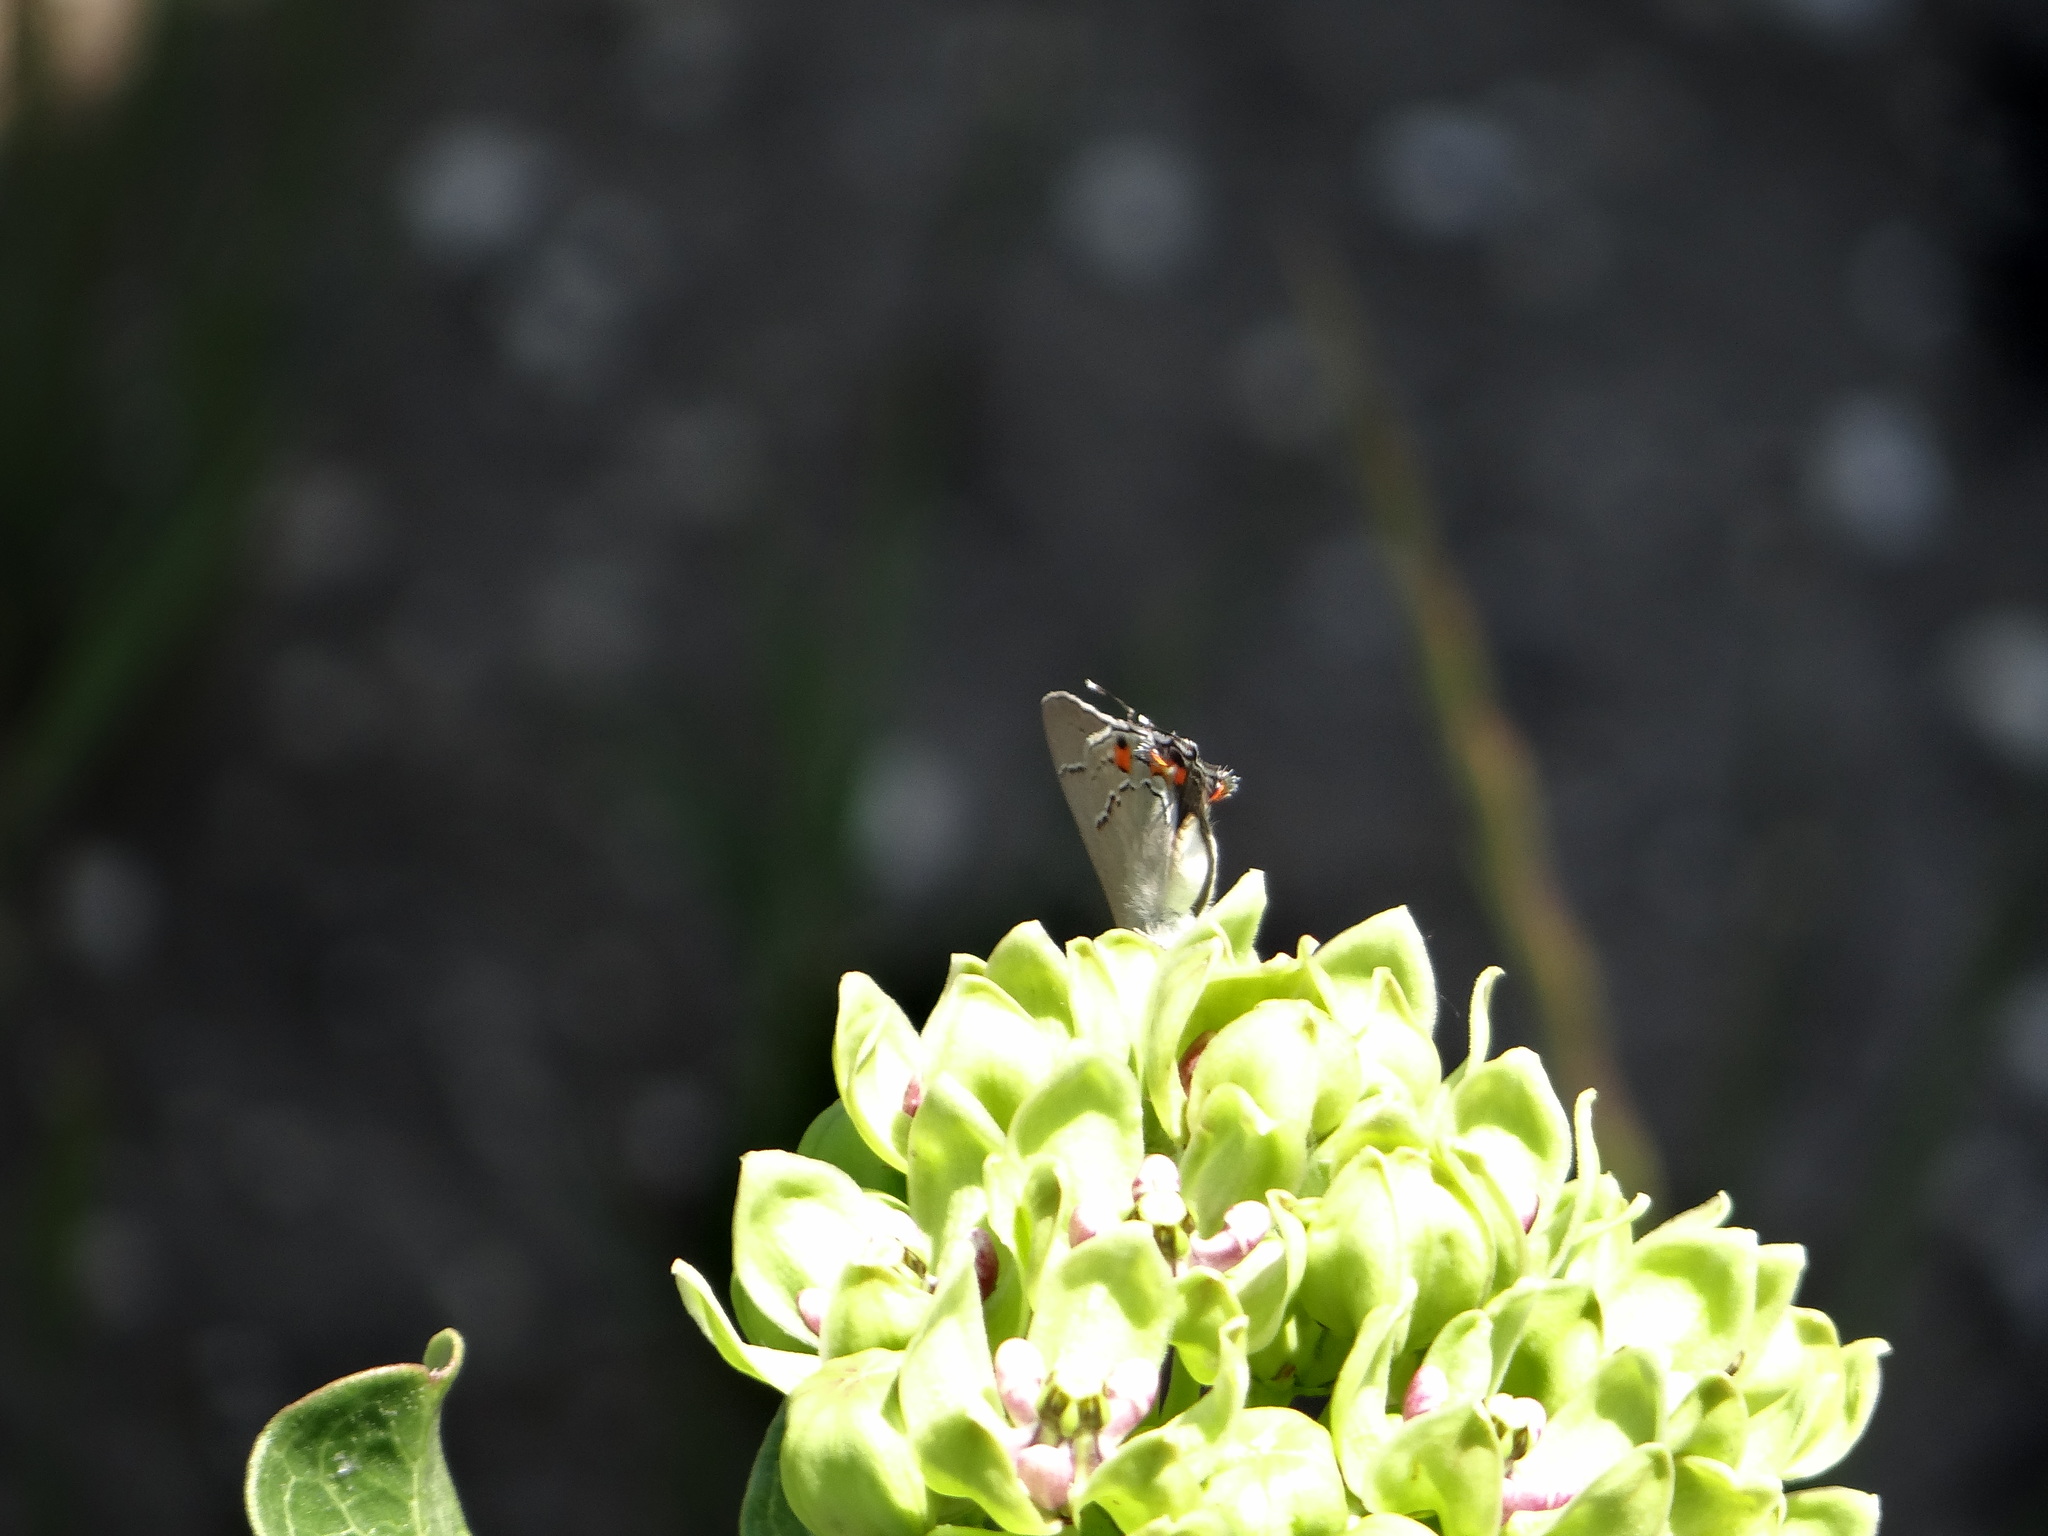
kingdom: Animalia
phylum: Arthropoda
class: Insecta
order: Lepidoptera
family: Lycaenidae
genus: Strymon
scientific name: Strymon melinus
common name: Gray hairstreak
